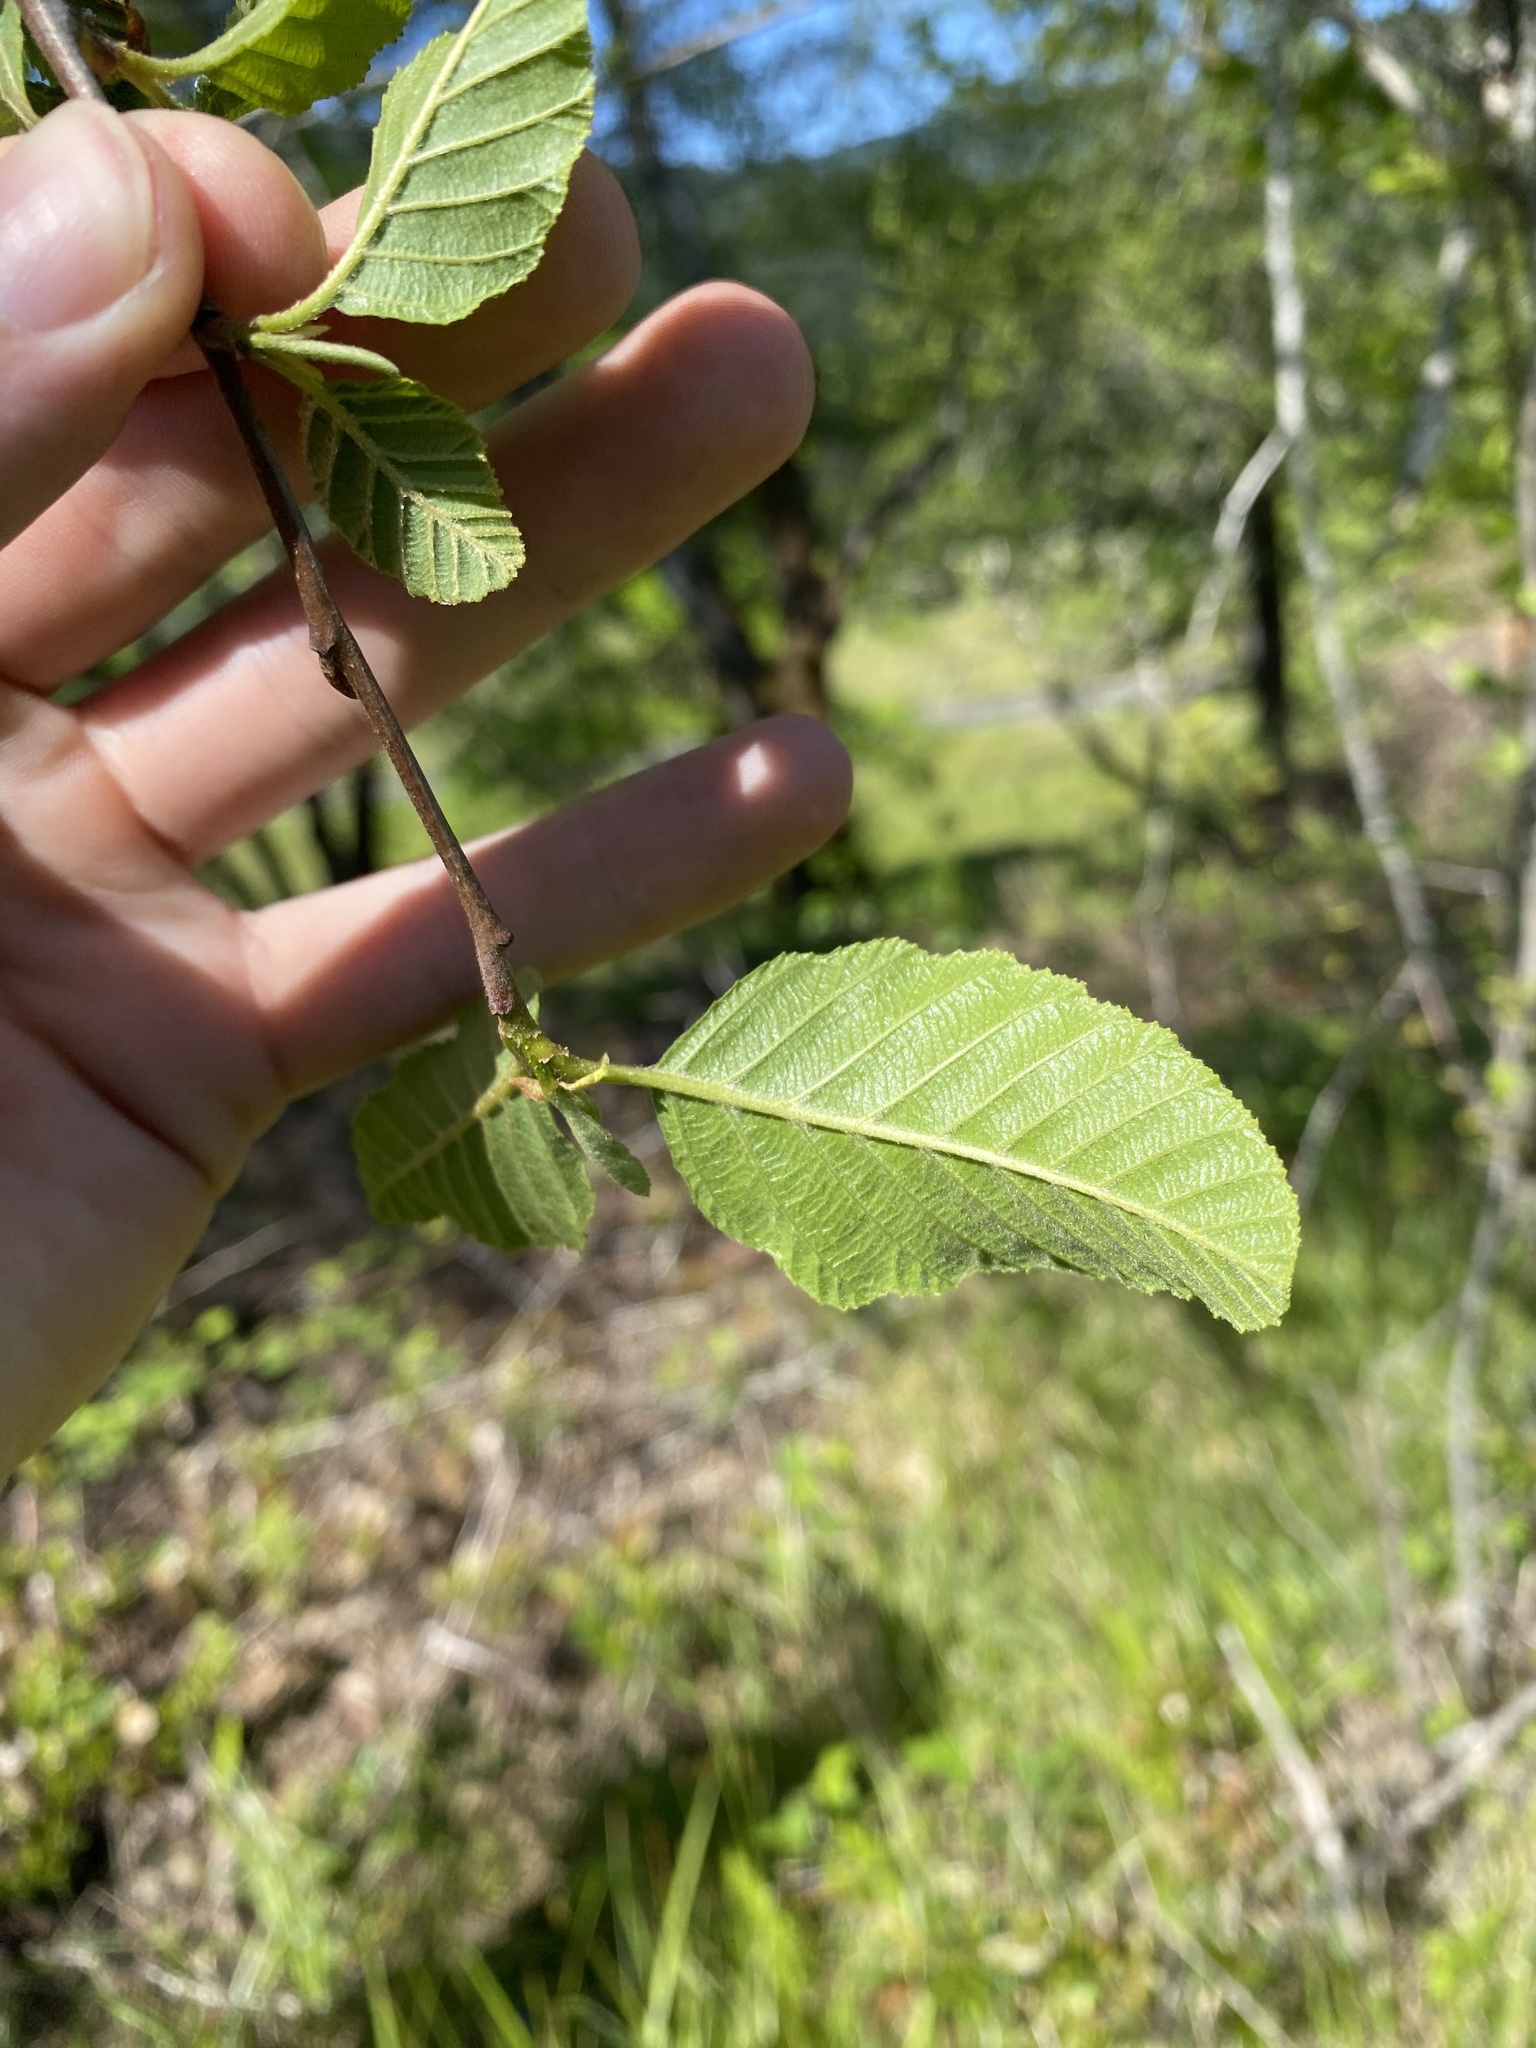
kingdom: Plantae
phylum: Tracheophyta
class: Magnoliopsida
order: Fagales
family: Betulaceae
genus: Alnus
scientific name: Alnus rhombifolia
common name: California alder
